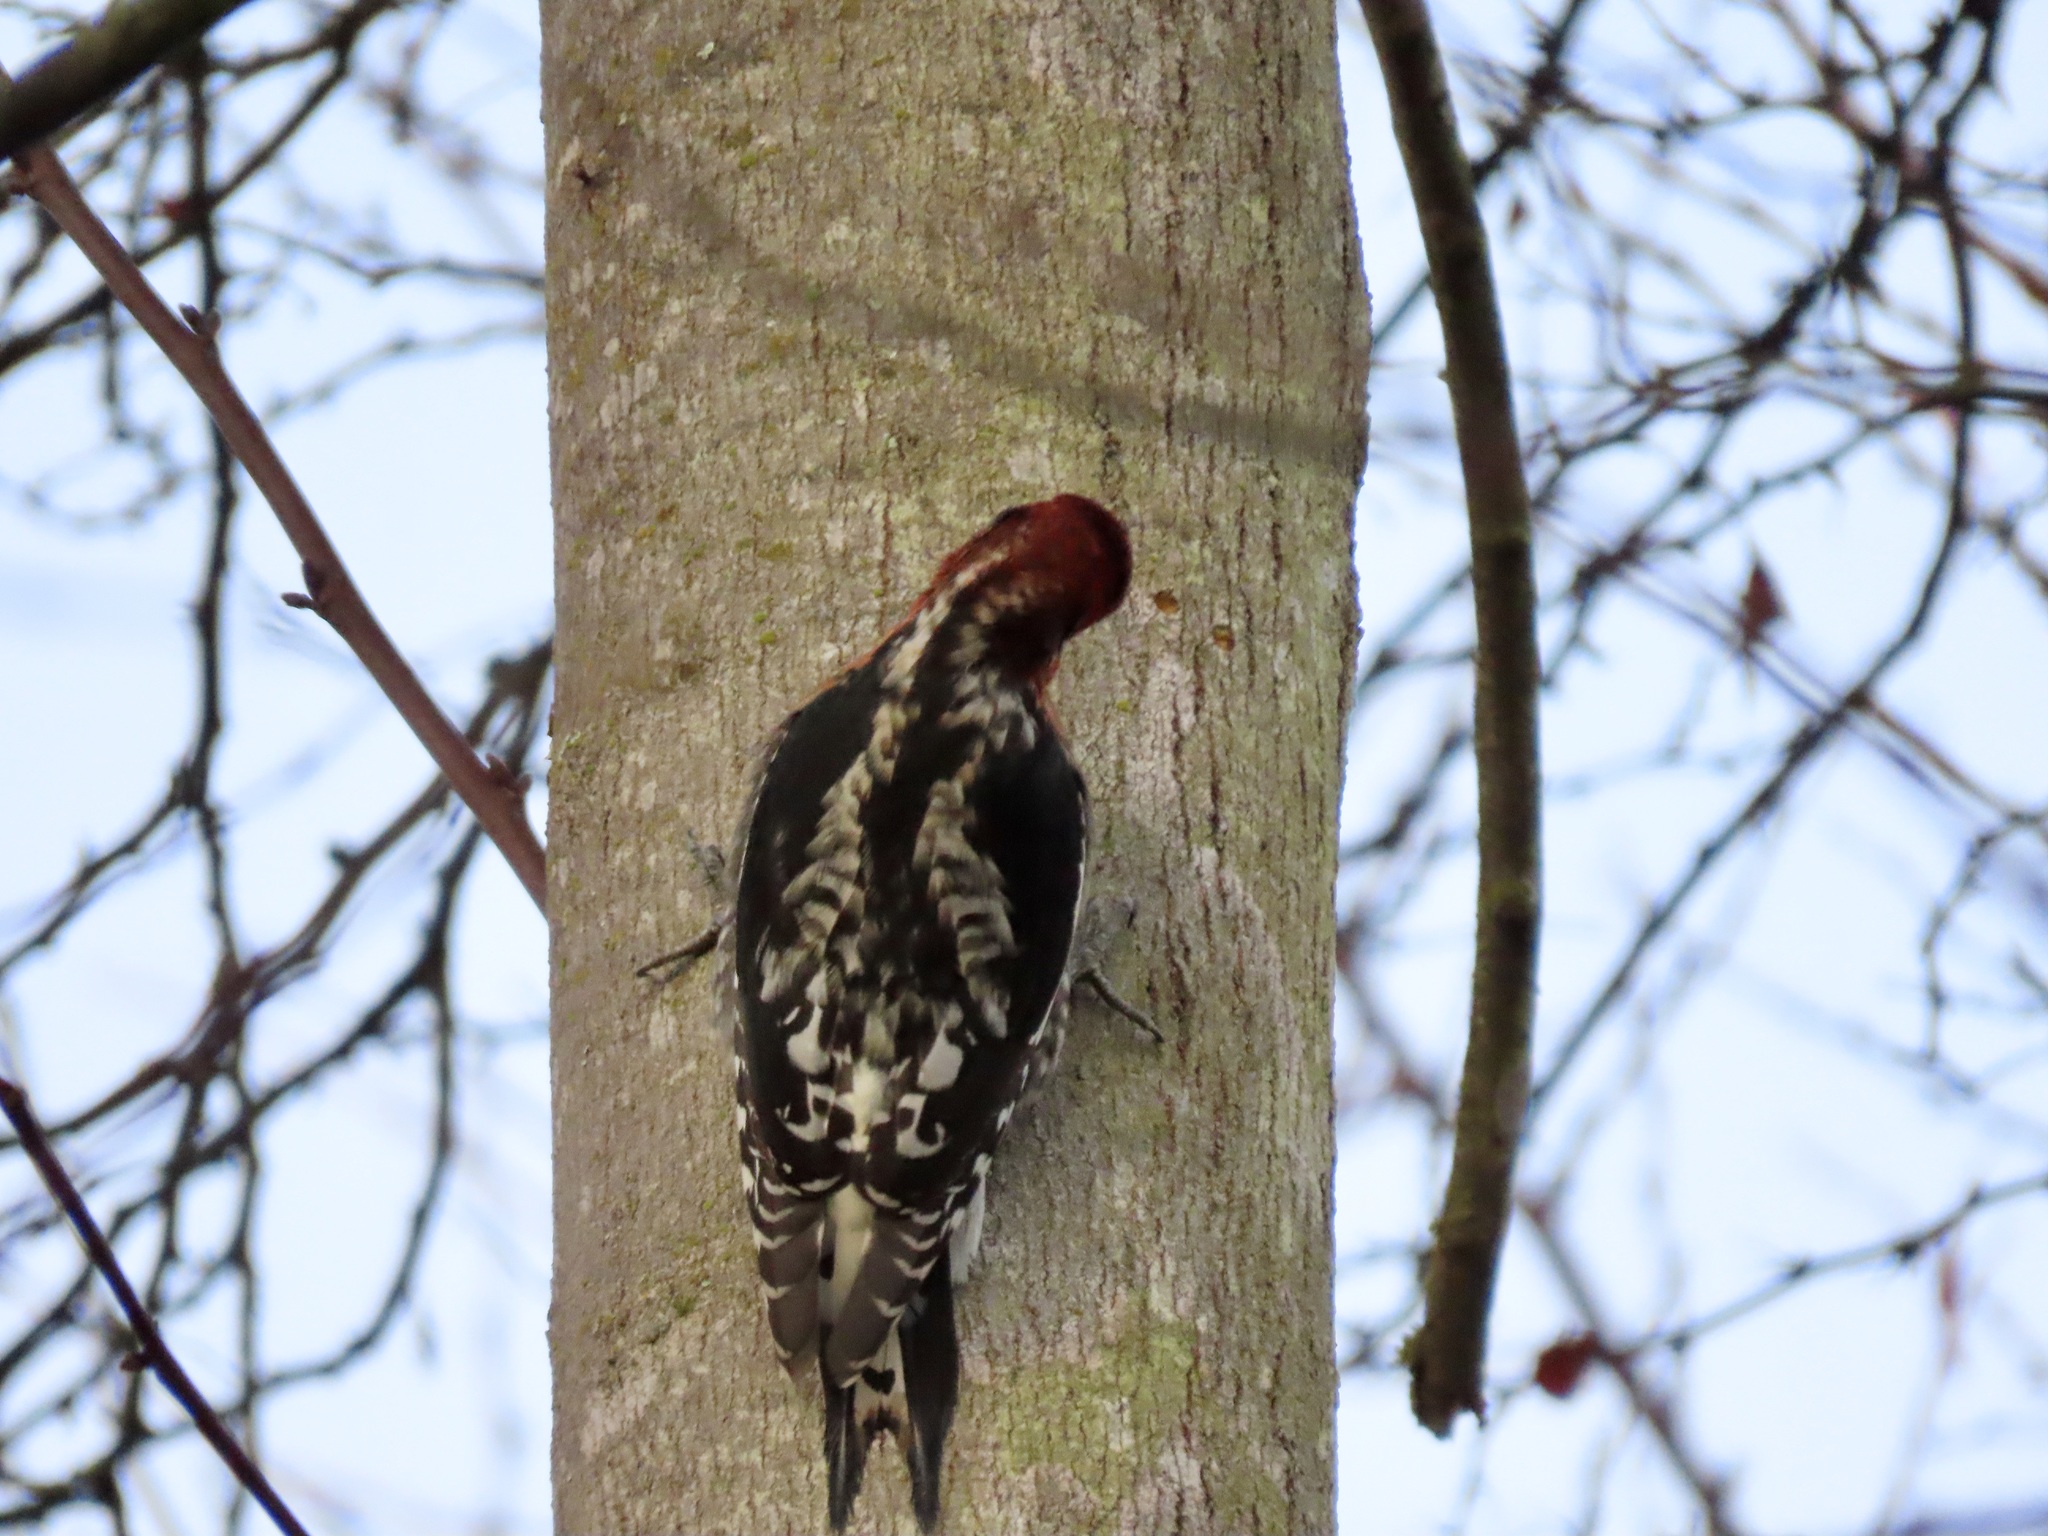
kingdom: Animalia
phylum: Chordata
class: Aves
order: Piciformes
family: Picidae
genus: Sphyrapicus
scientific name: Sphyrapicus ruber
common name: Red-breasted sapsucker
